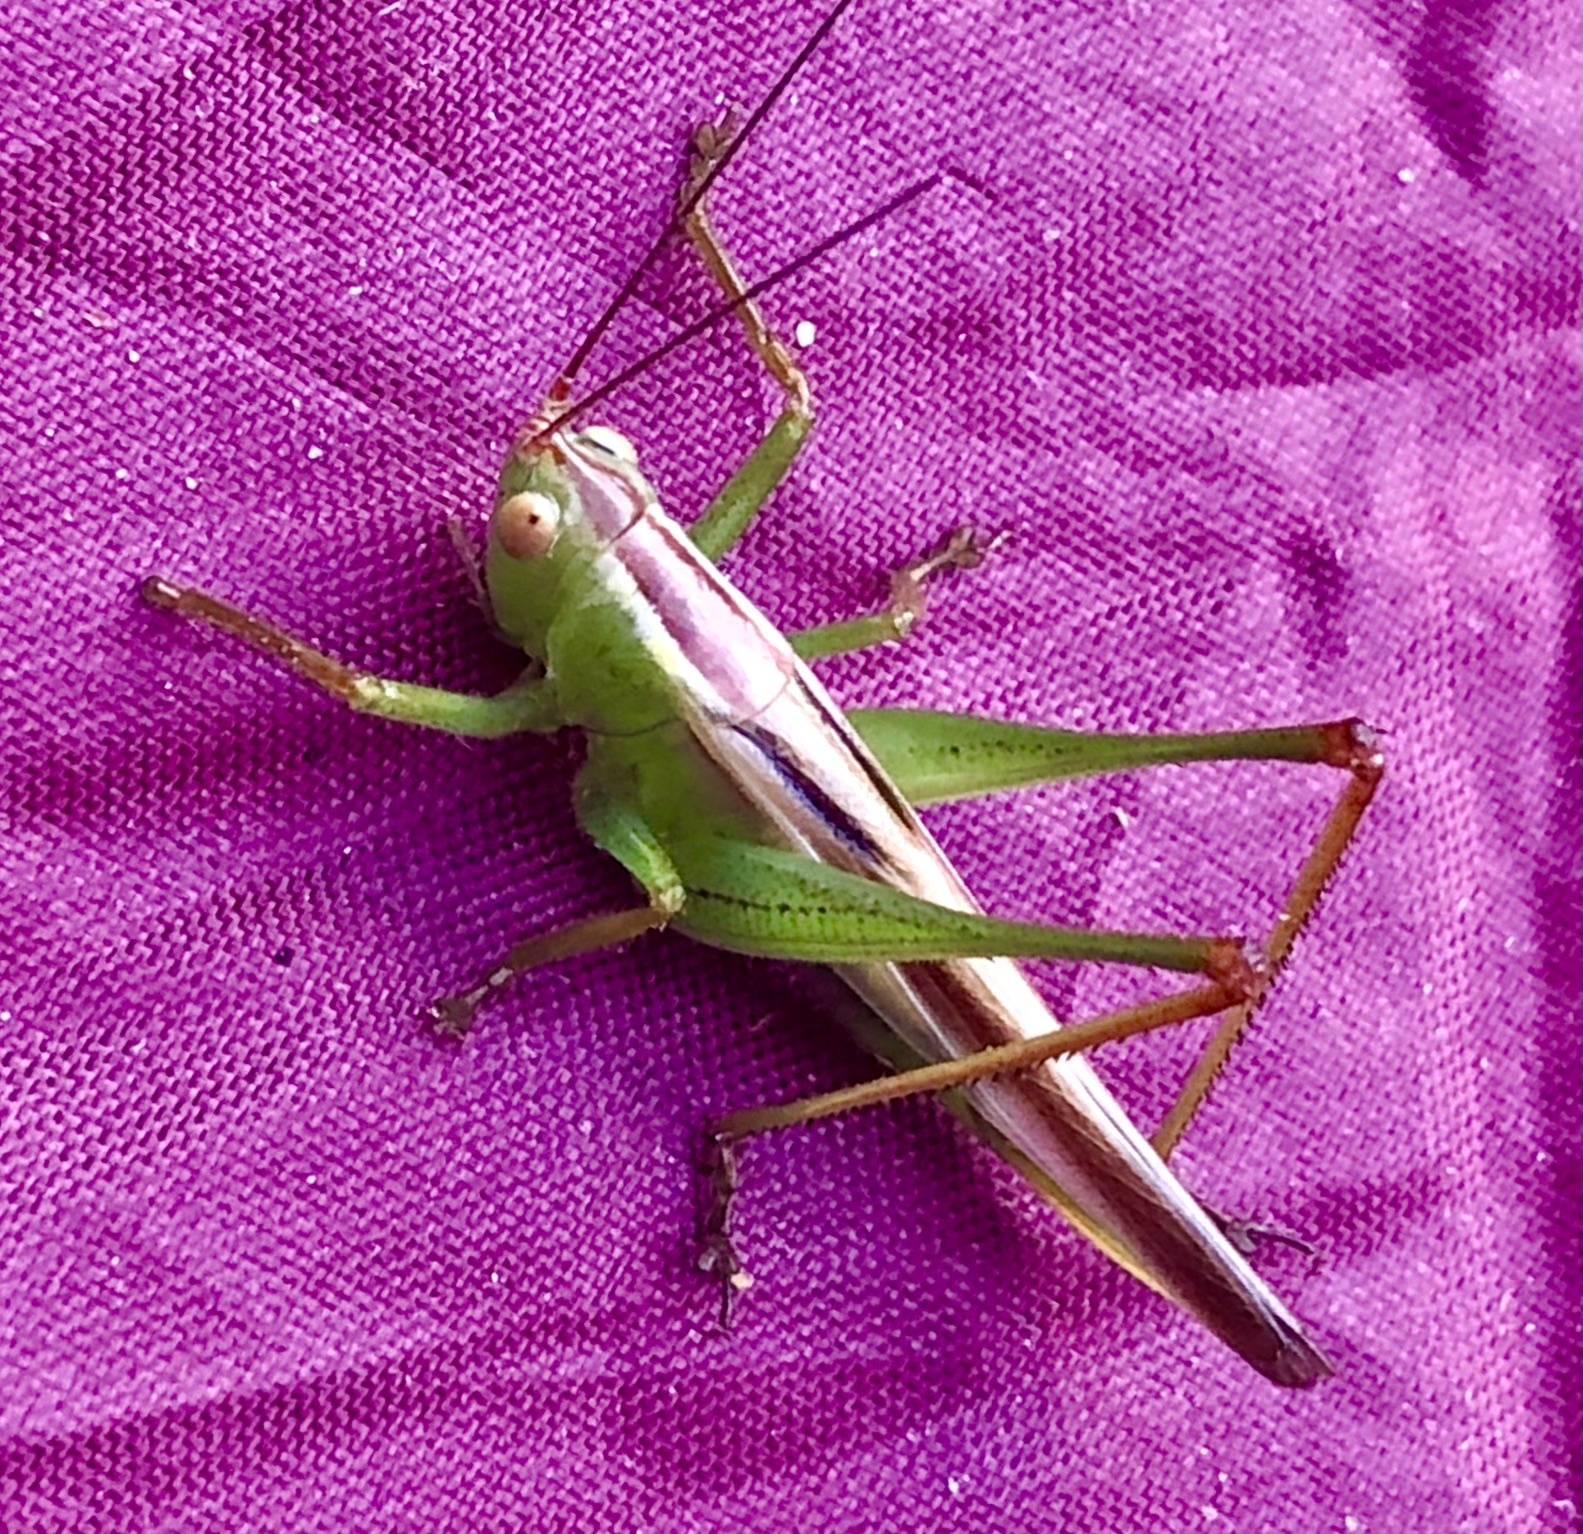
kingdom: Animalia
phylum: Arthropoda
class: Insecta
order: Orthoptera
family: Tettigoniidae
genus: Orchelimum
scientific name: Orchelimum minor
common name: Lesser pine meadow katydid
